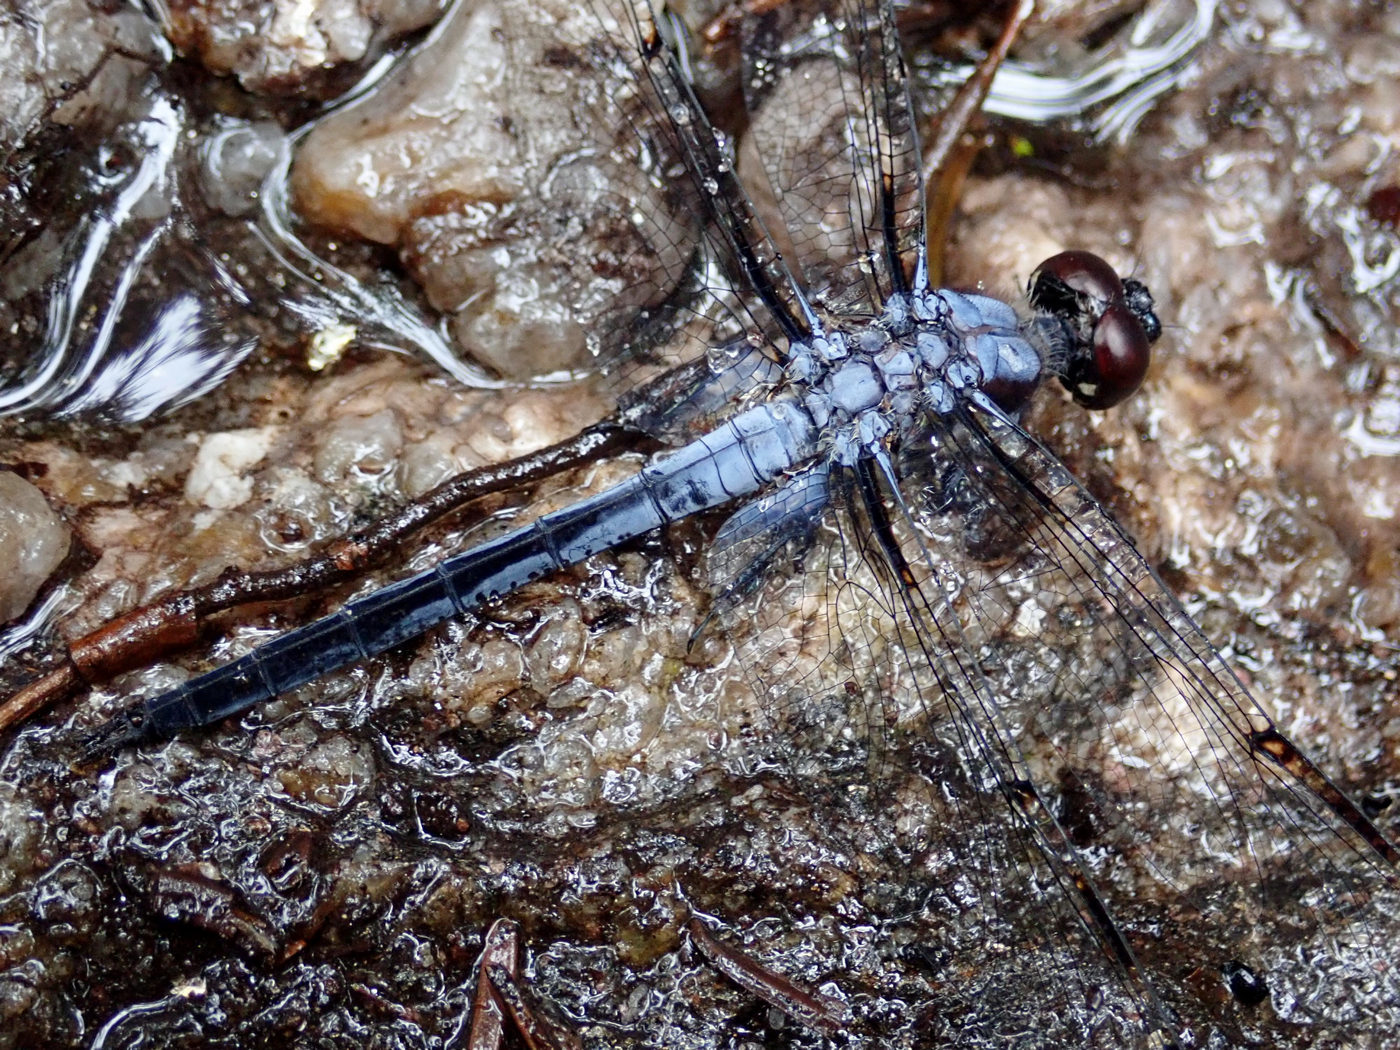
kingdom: Animalia
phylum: Arthropoda
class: Insecta
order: Odonata
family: Libellulidae
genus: Libellula
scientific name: Libellula axilena
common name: Bar-winged skimmer
